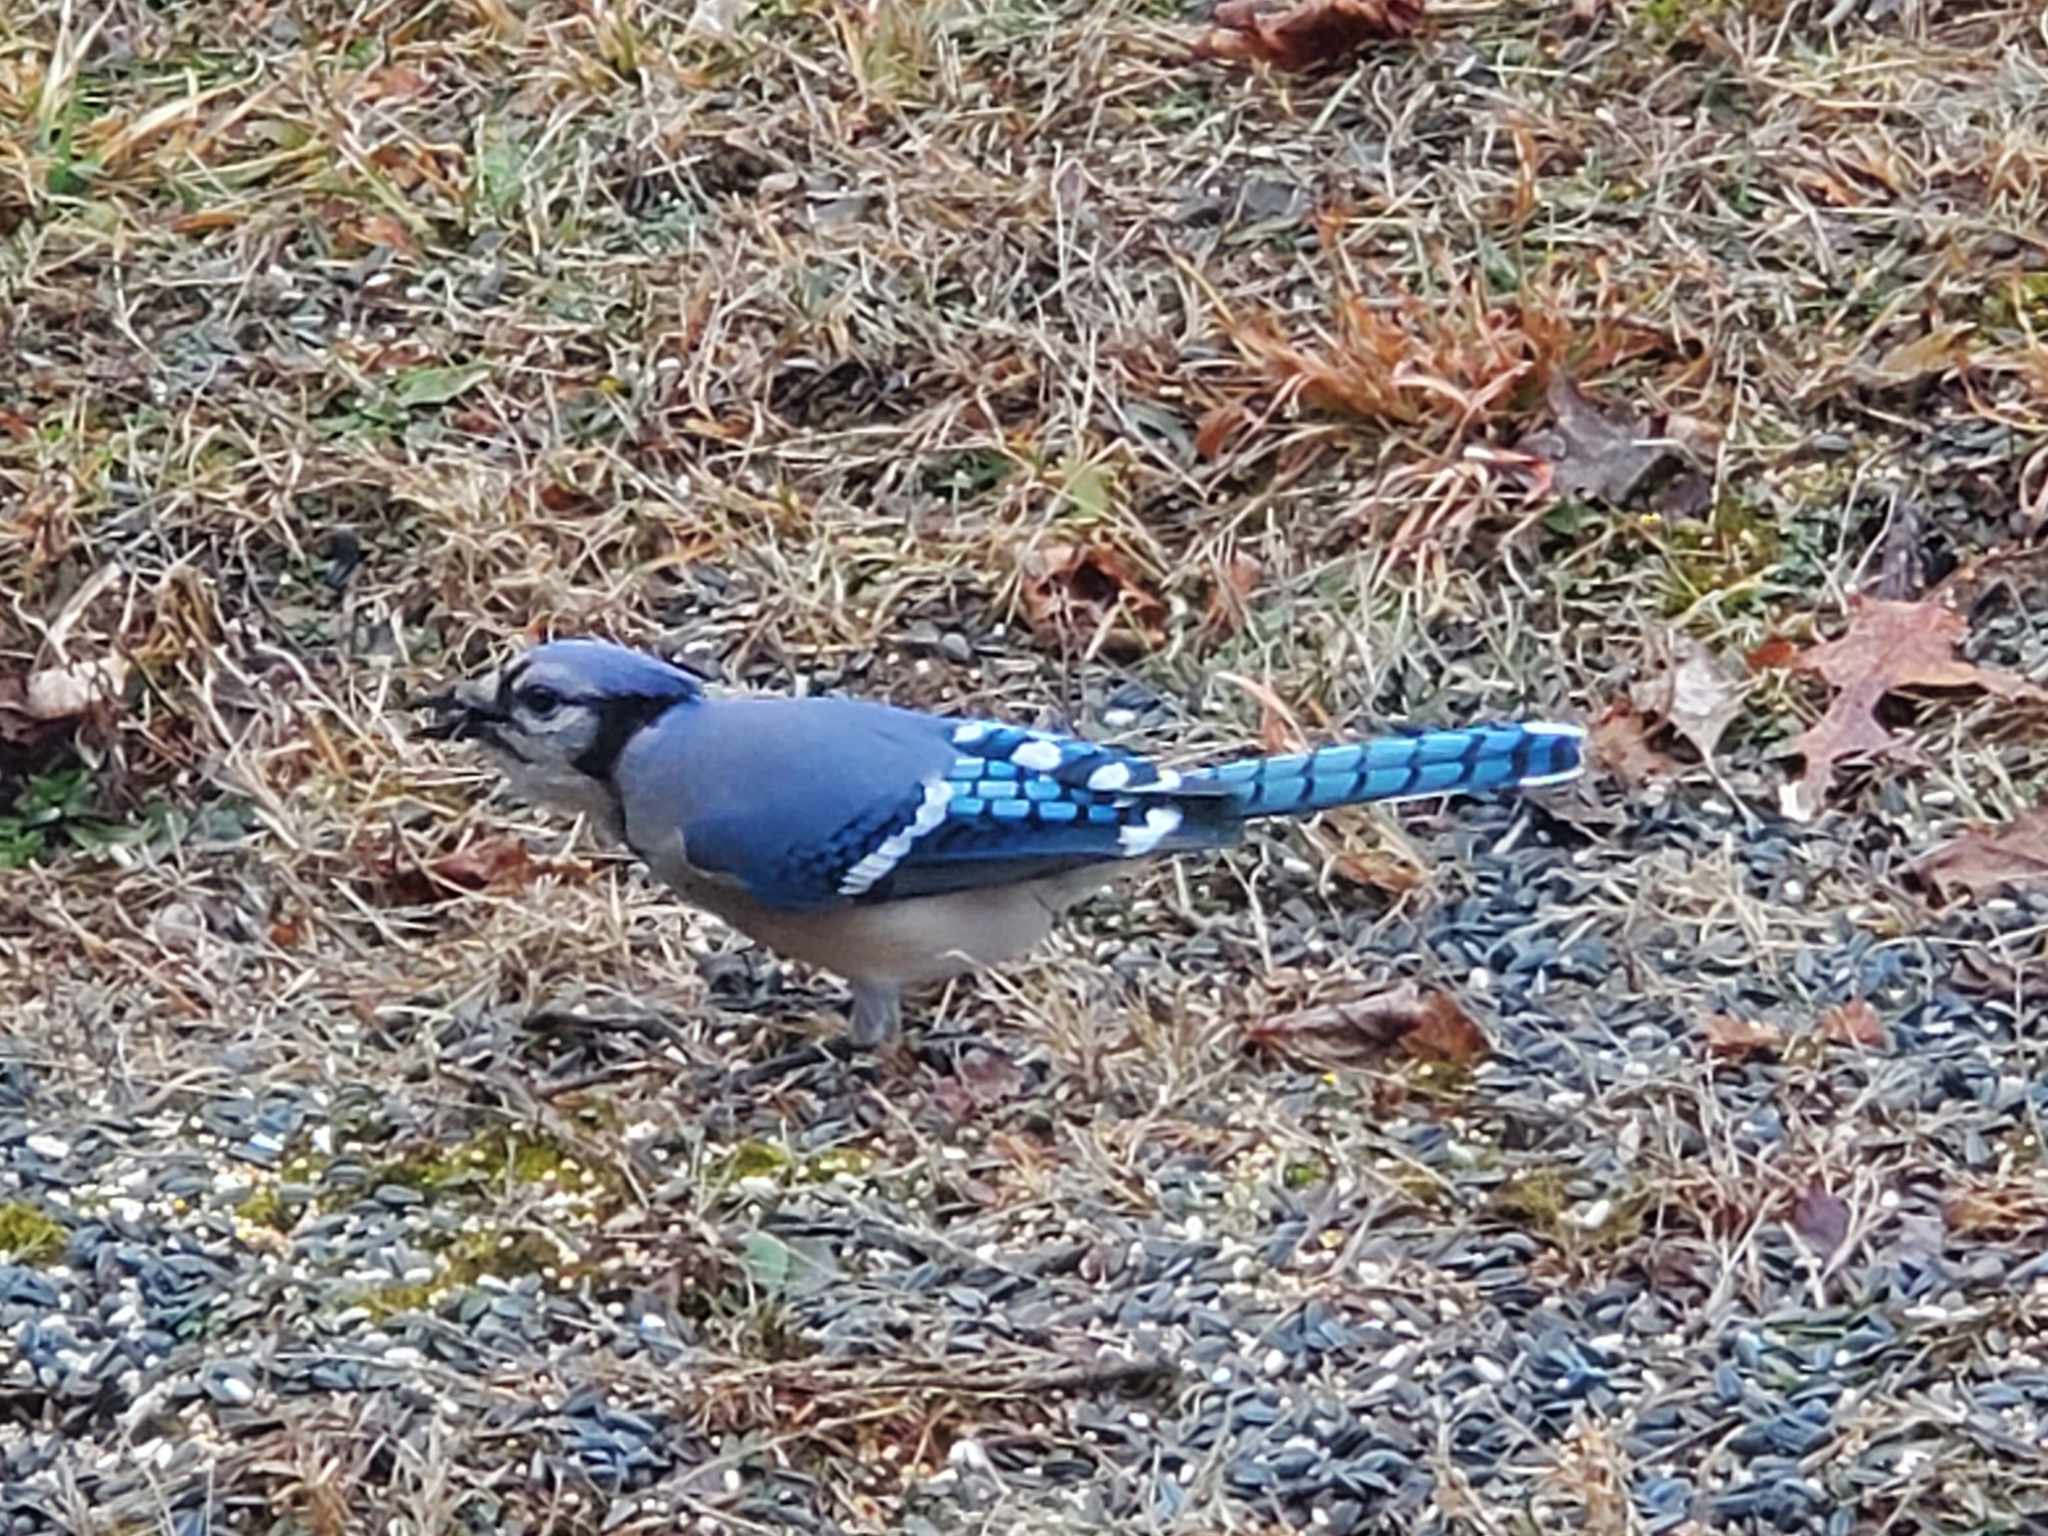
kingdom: Animalia
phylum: Chordata
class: Aves
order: Passeriformes
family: Corvidae
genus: Cyanocitta
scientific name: Cyanocitta cristata
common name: Blue jay
